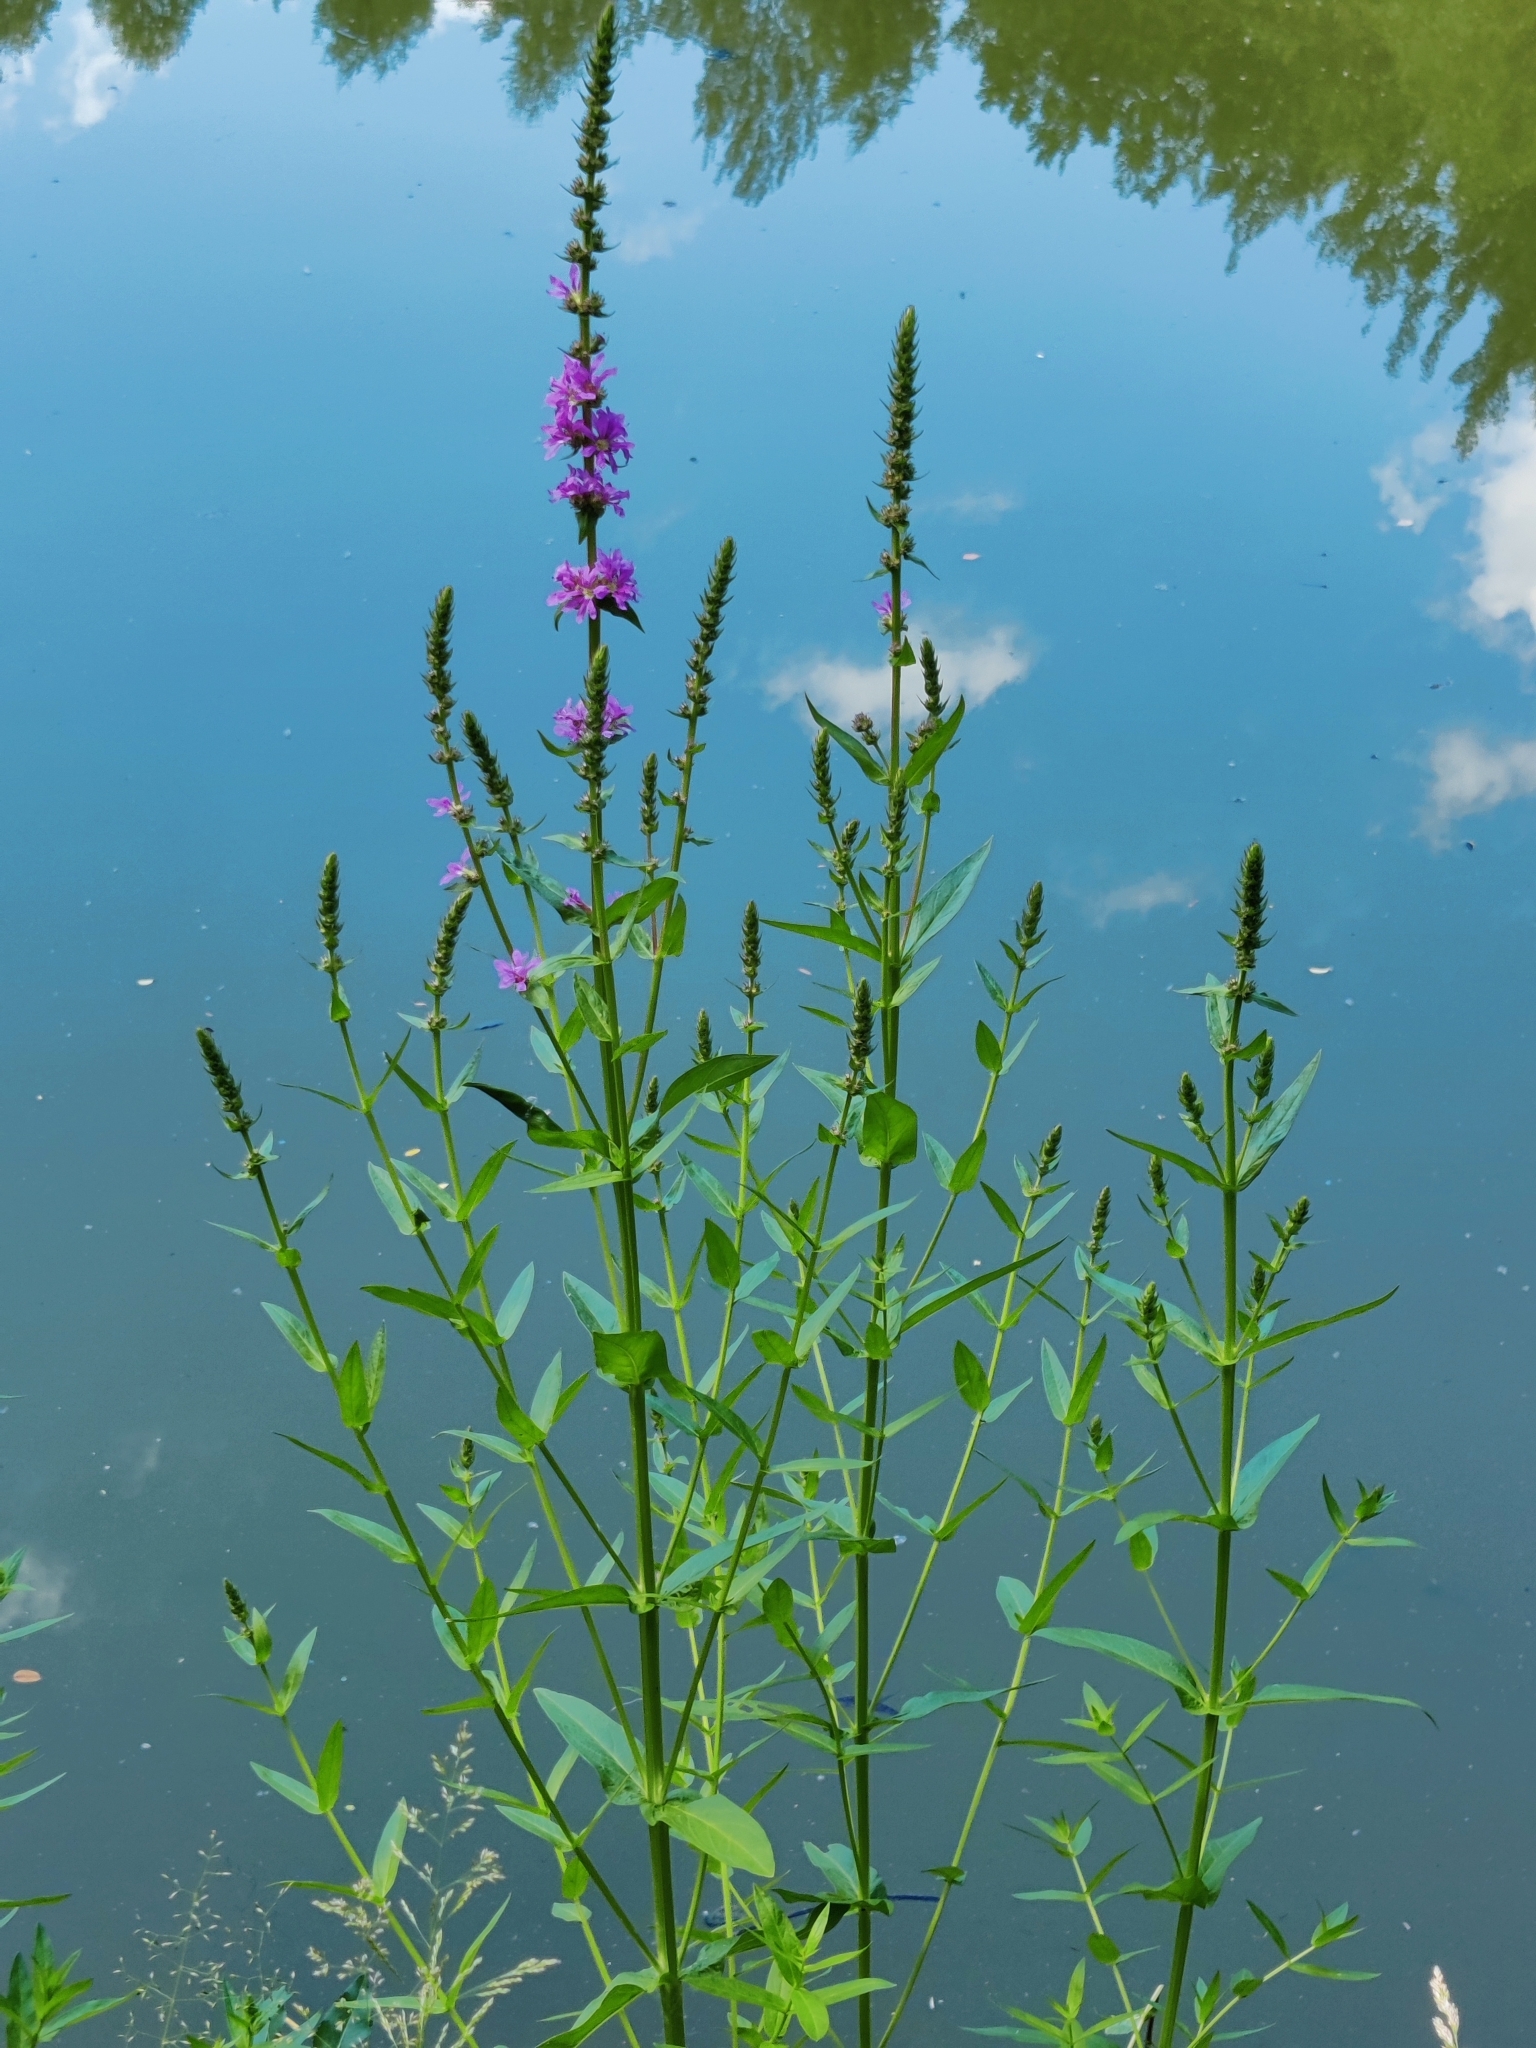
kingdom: Plantae
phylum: Tracheophyta
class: Magnoliopsida
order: Myrtales
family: Lythraceae
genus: Lythrum
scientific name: Lythrum salicaria
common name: Purple loosestrife
